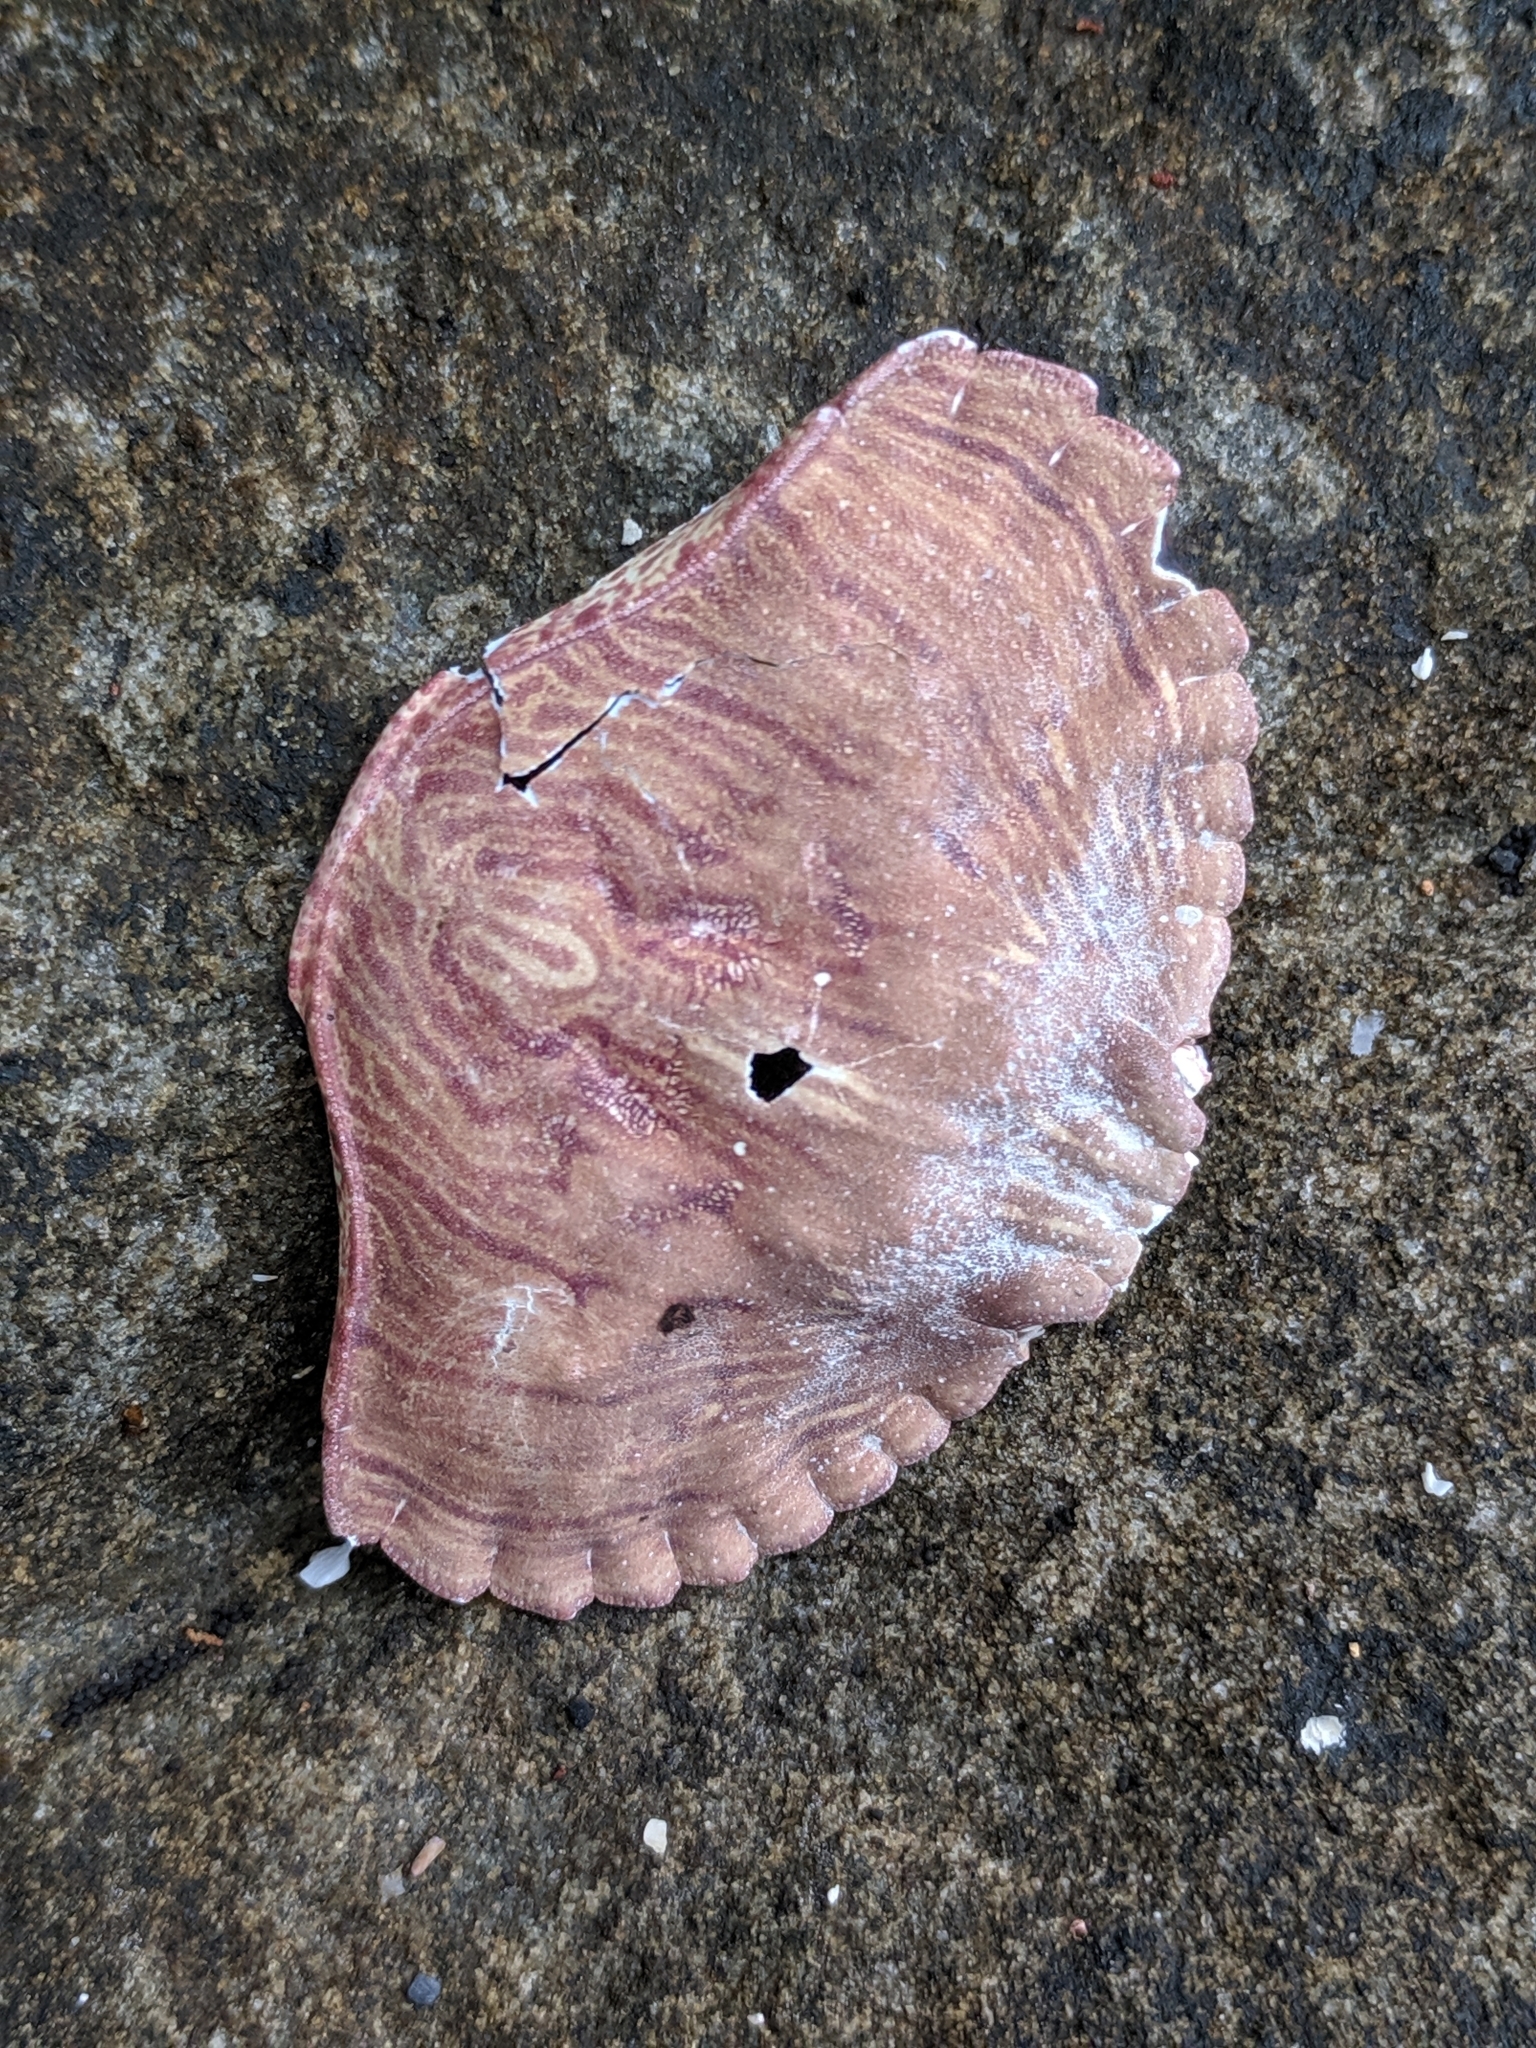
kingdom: Animalia
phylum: Arthropoda
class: Malacostraca
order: Decapoda
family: Cancridae
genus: Cancer
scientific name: Cancer productus
